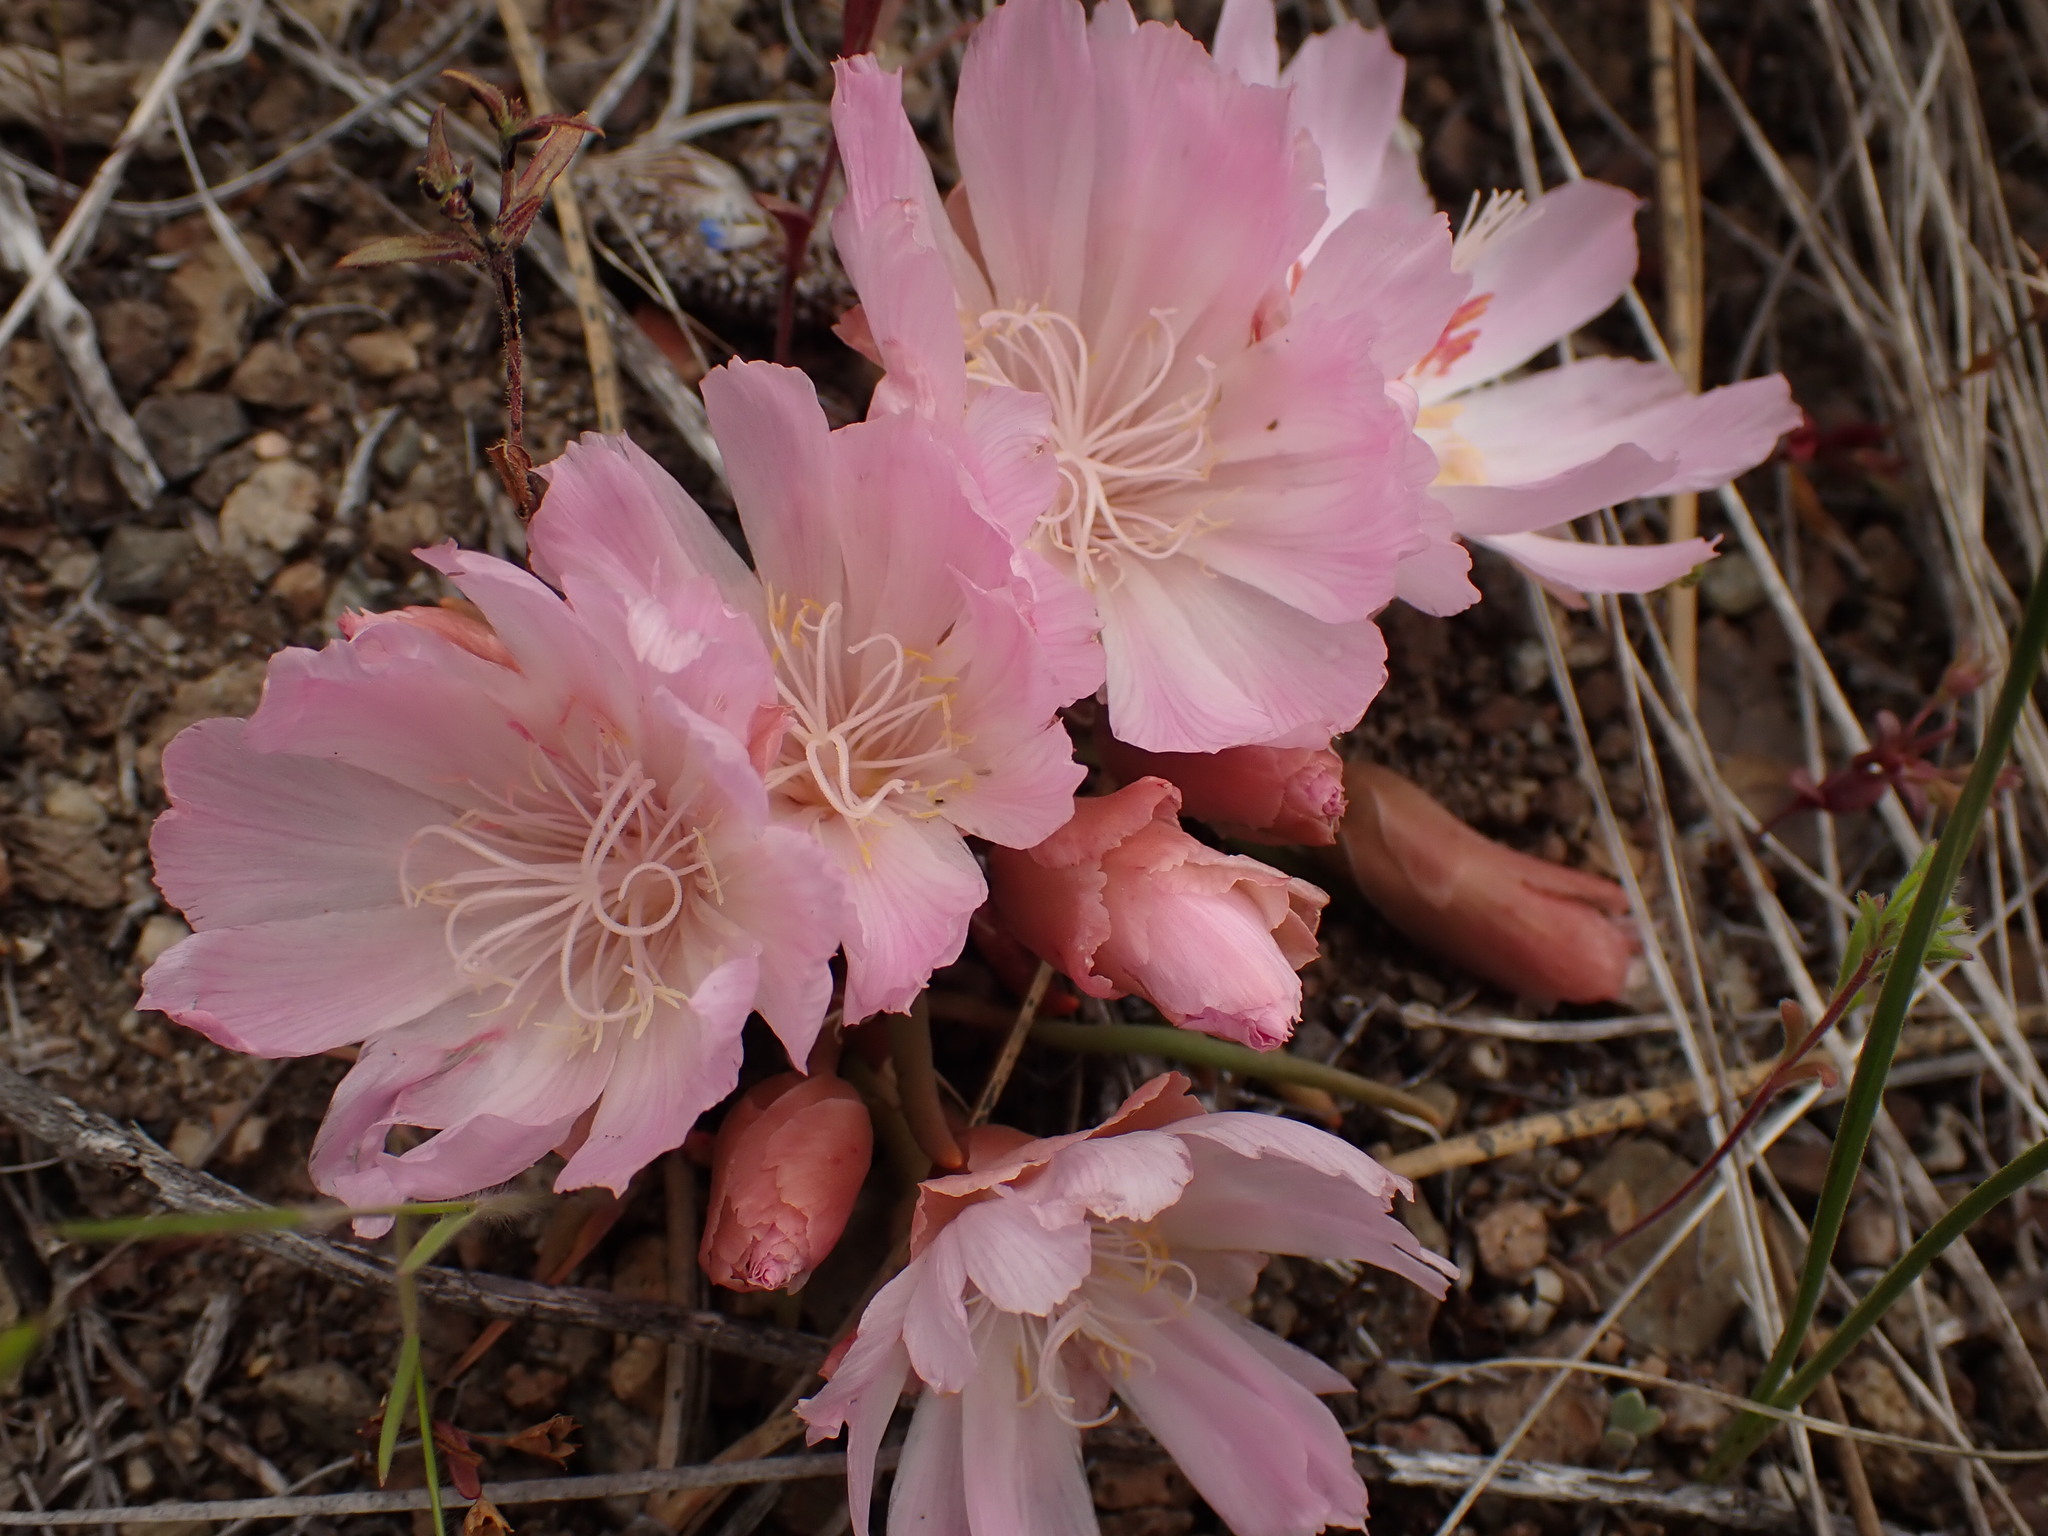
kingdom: Plantae
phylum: Tracheophyta
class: Magnoliopsida
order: Caryophyllales
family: Montiaceae
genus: Lewisia
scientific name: Lewisia rediviva
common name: Bitter-root
